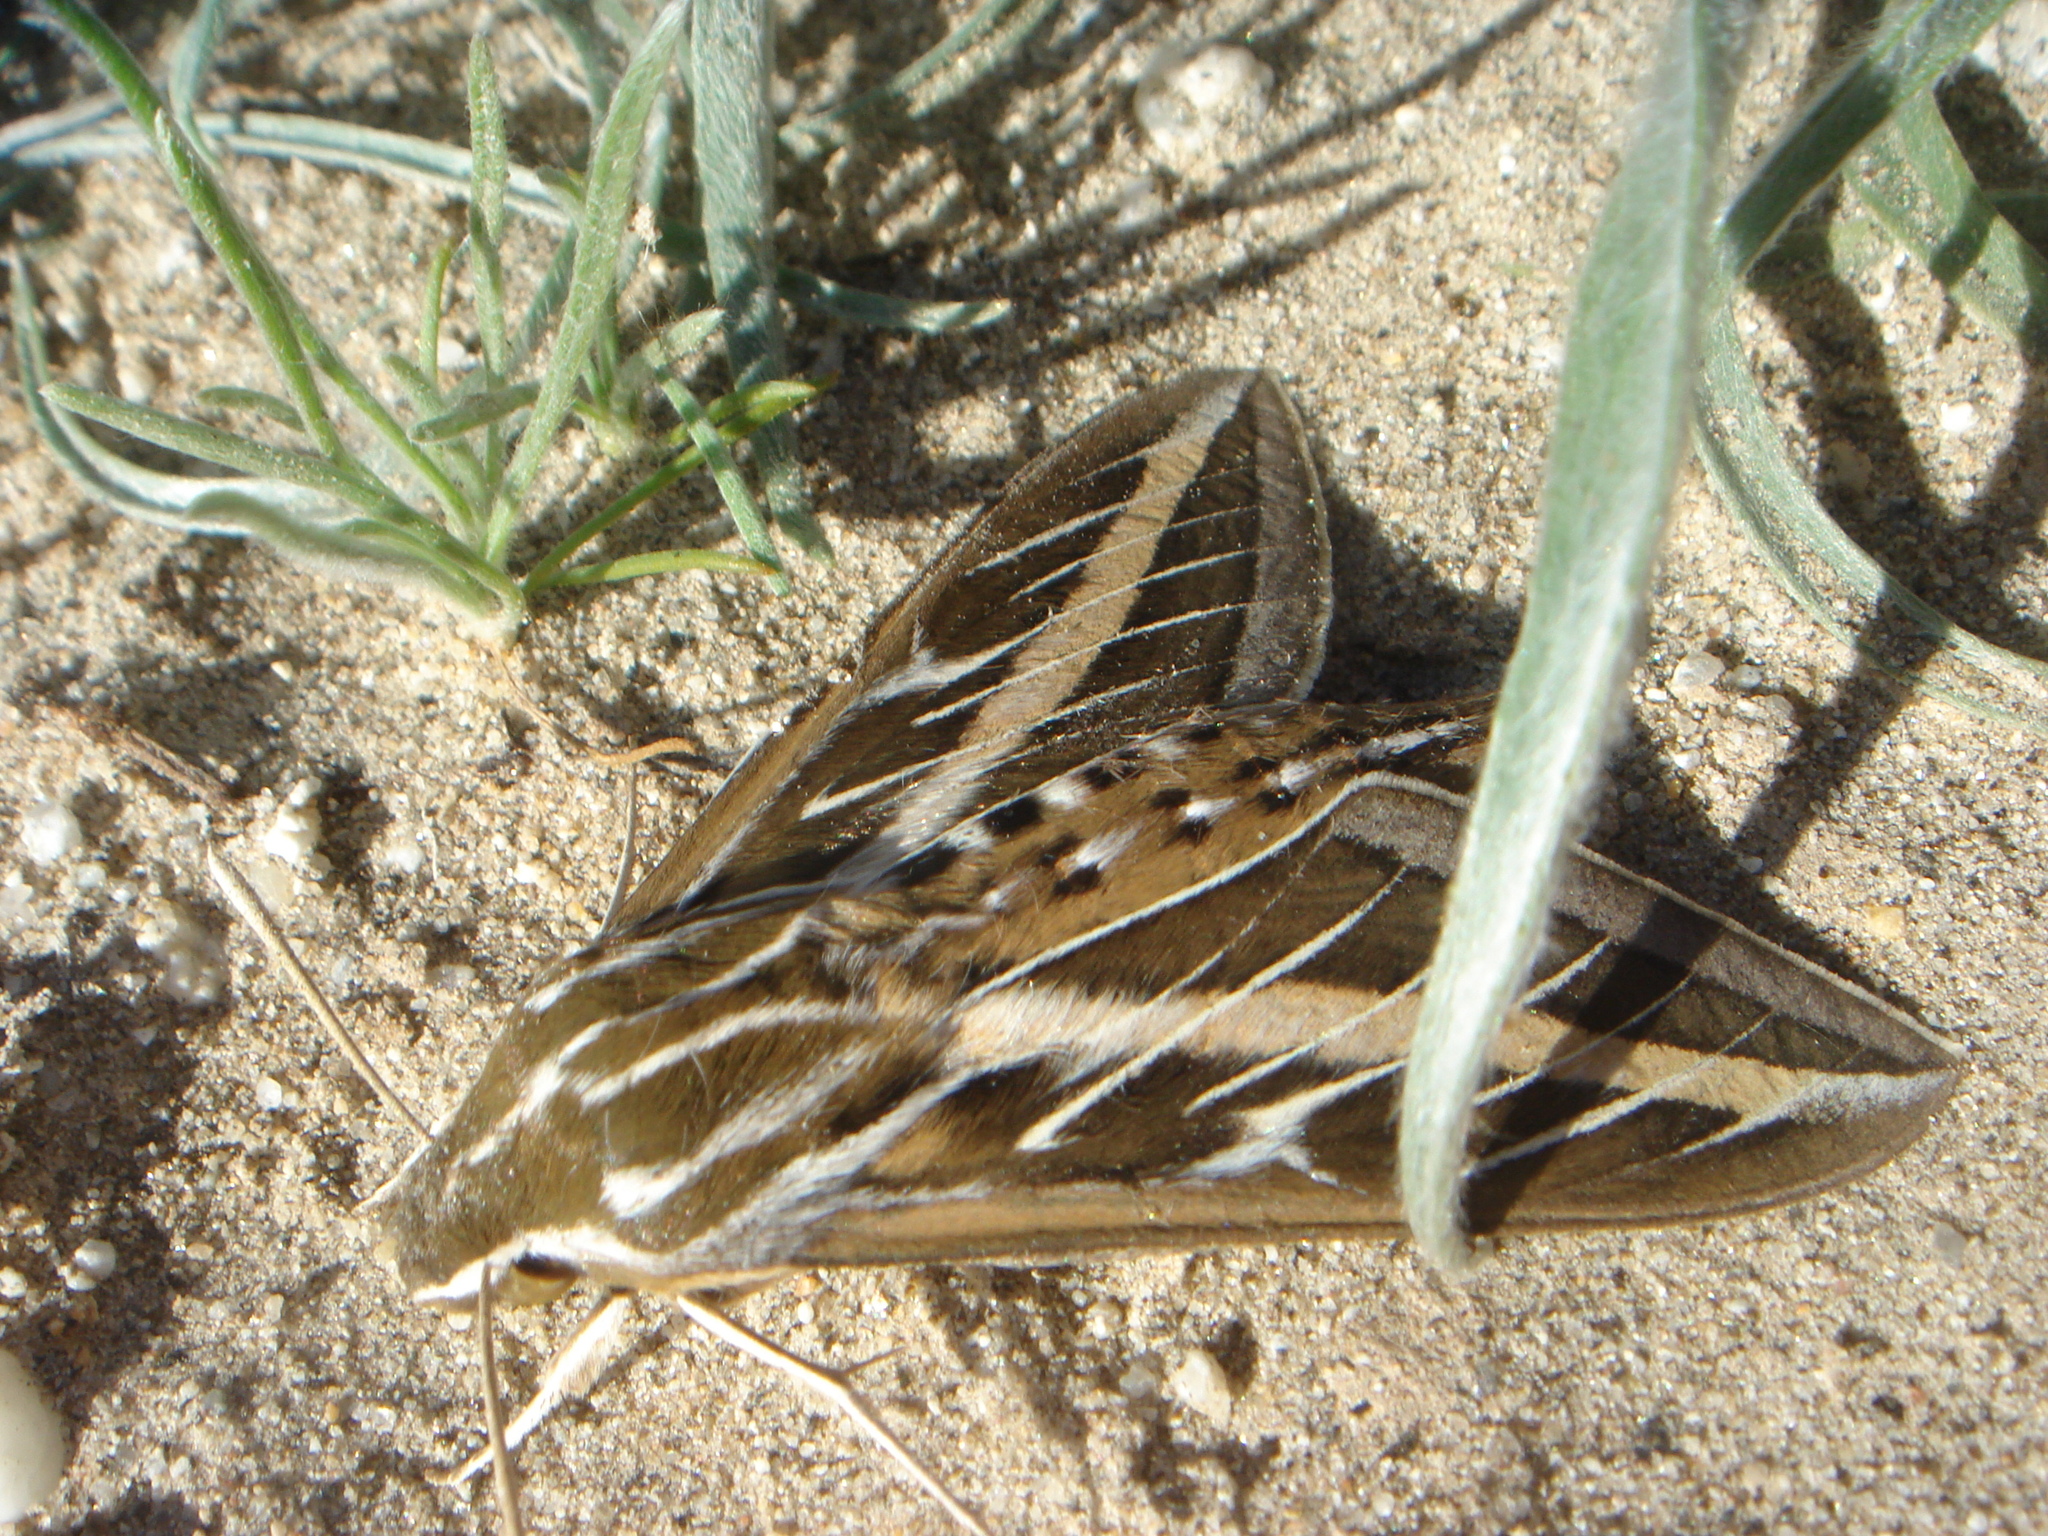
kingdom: Animalia
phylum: Arthropoda
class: Insecta
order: Lepidoptera
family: Sphingidae
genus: Hyles
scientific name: Hyles lineata
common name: White-lined sphinx
